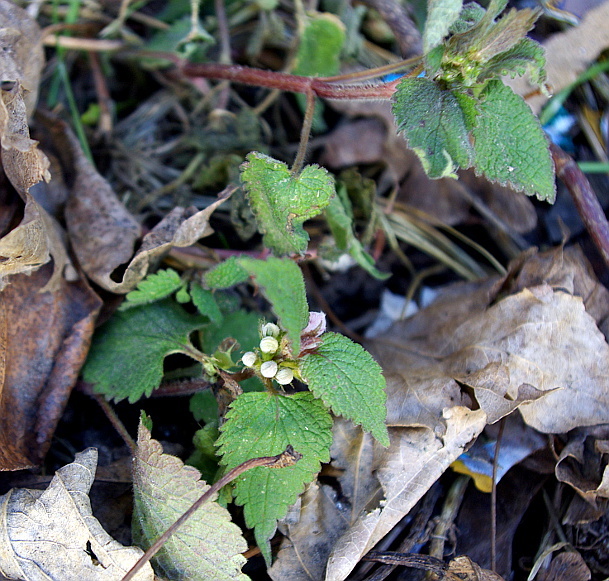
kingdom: Plantae
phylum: Tracheophyta
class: Magnoliopsida
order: Lamiales
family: Lamiaceae
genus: Lamium
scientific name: Lamium album
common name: White dead-nettle
